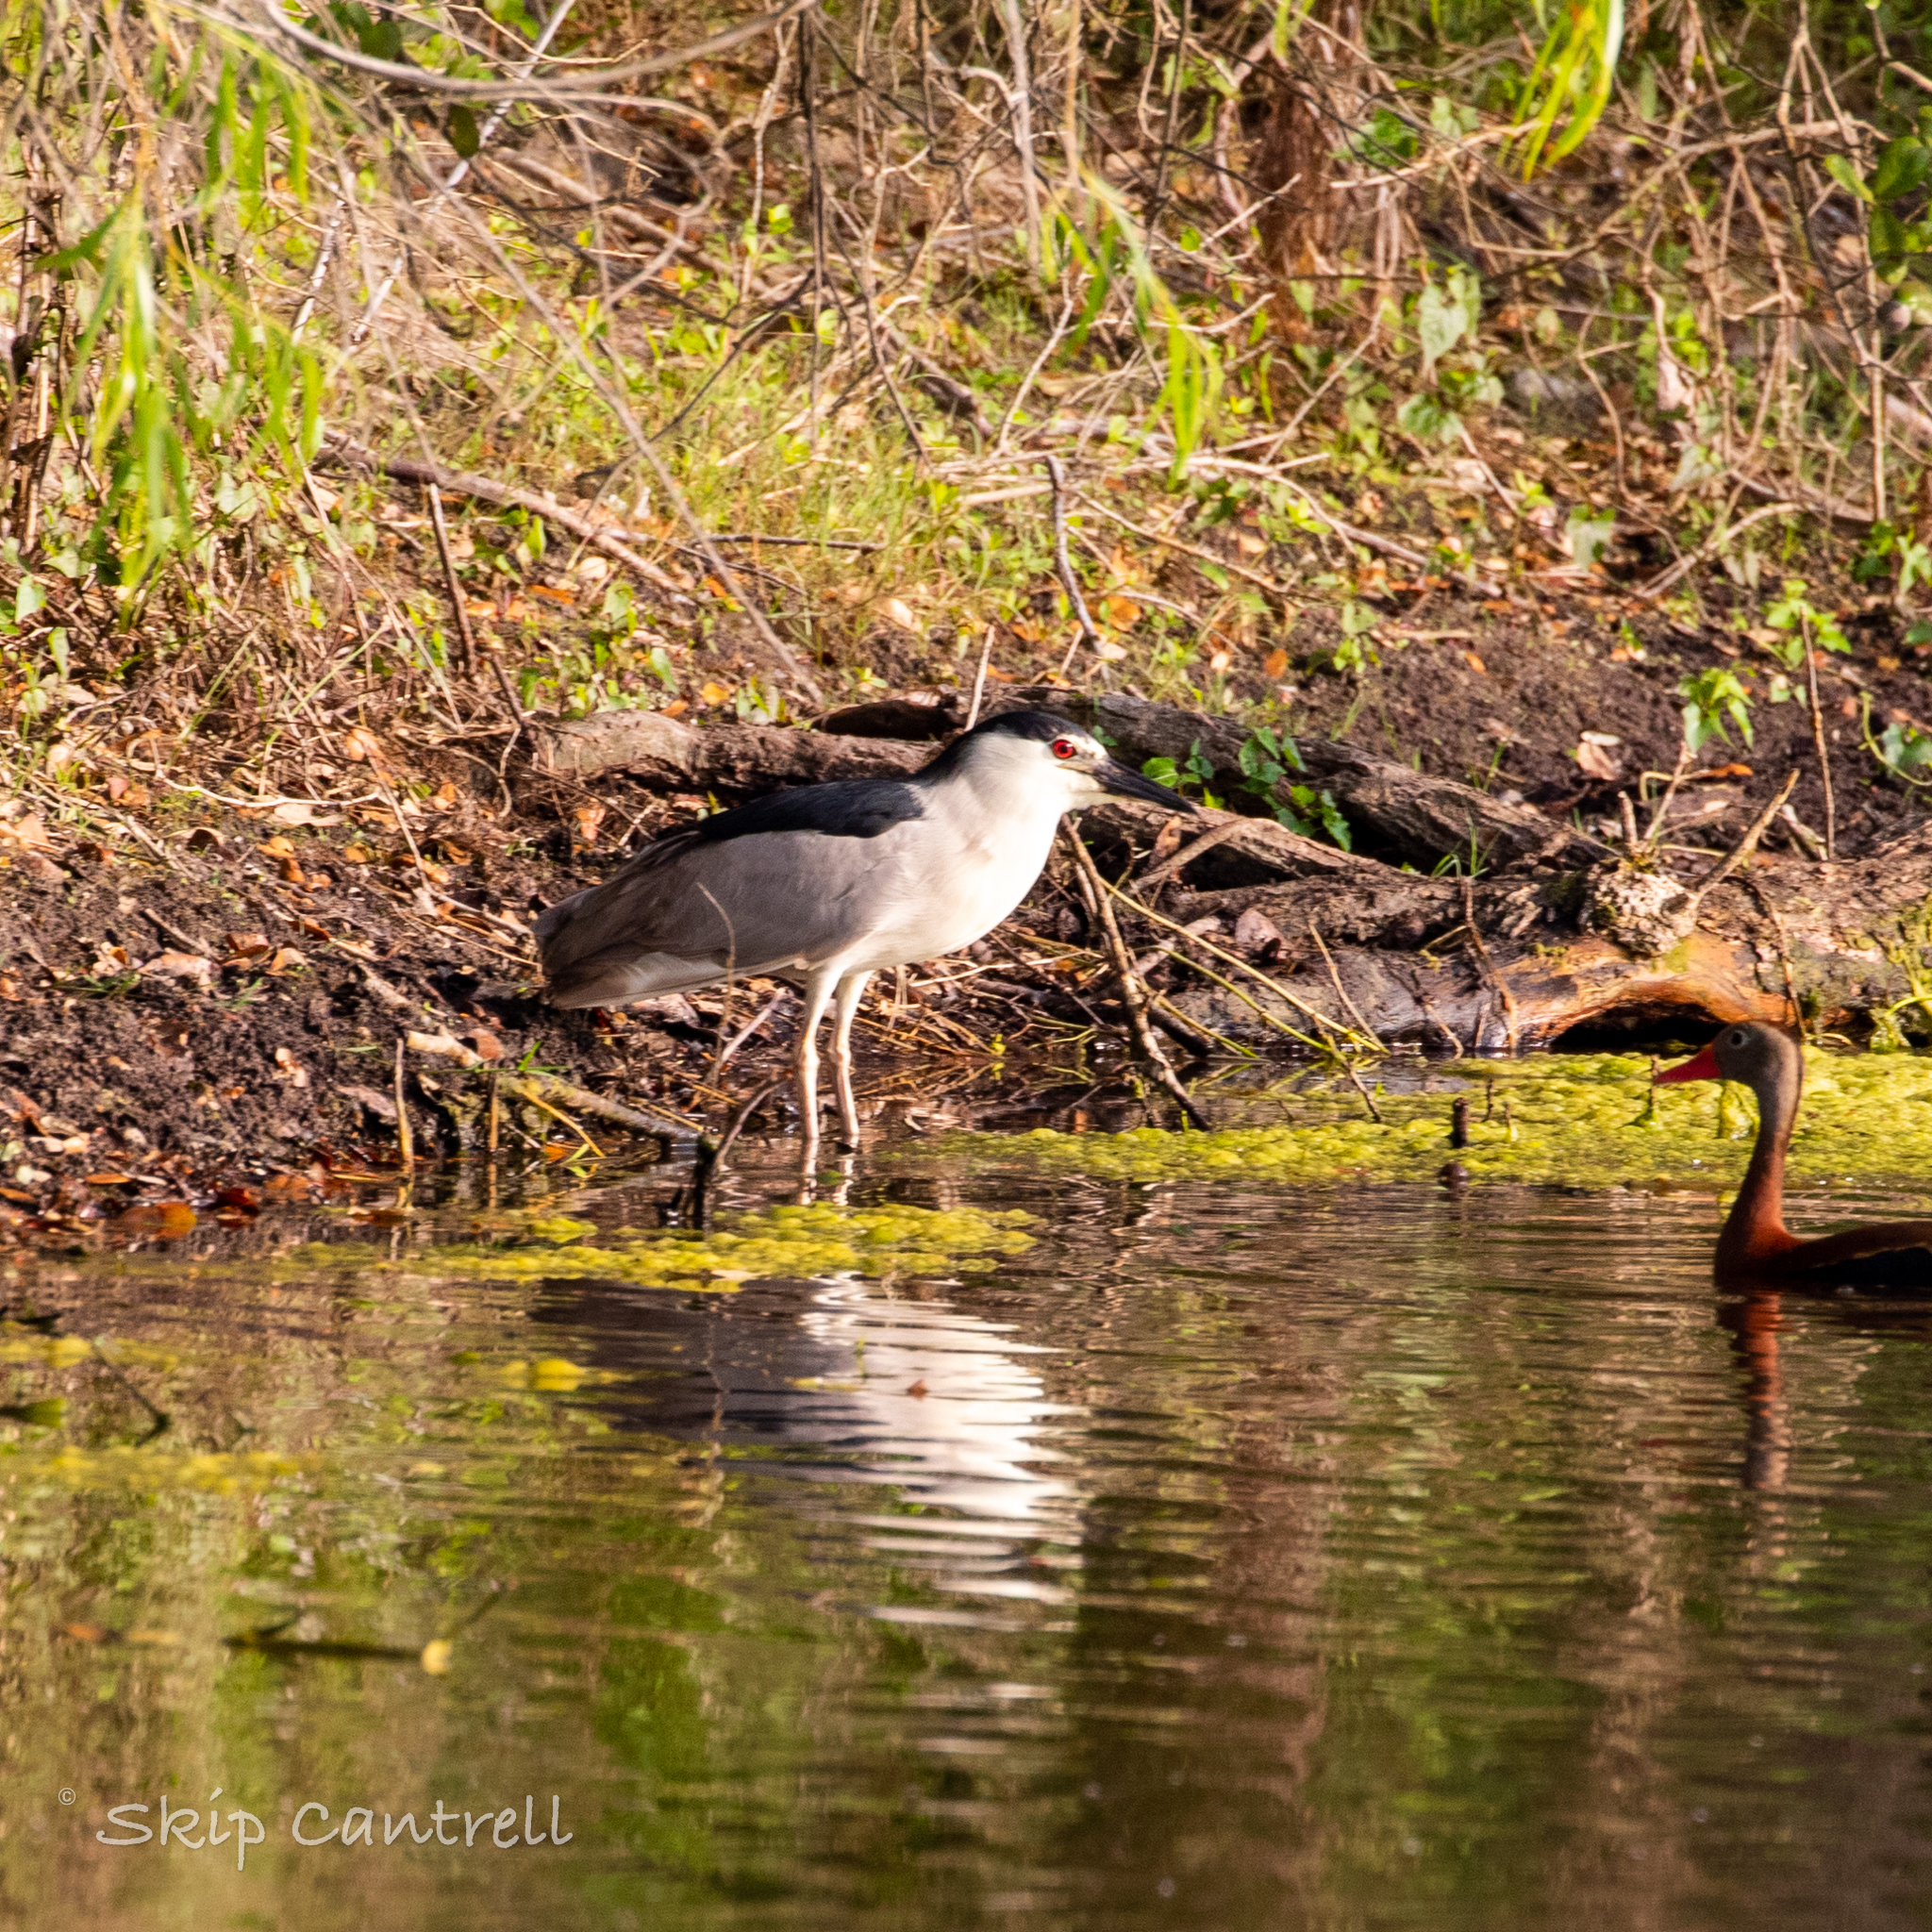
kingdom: Animalia
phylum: Chordata
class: Aves
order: Pelecaniformes
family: Ardeidae
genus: Nycticorax
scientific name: Nycticorax nycticorax
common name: Black-crowned night heron
